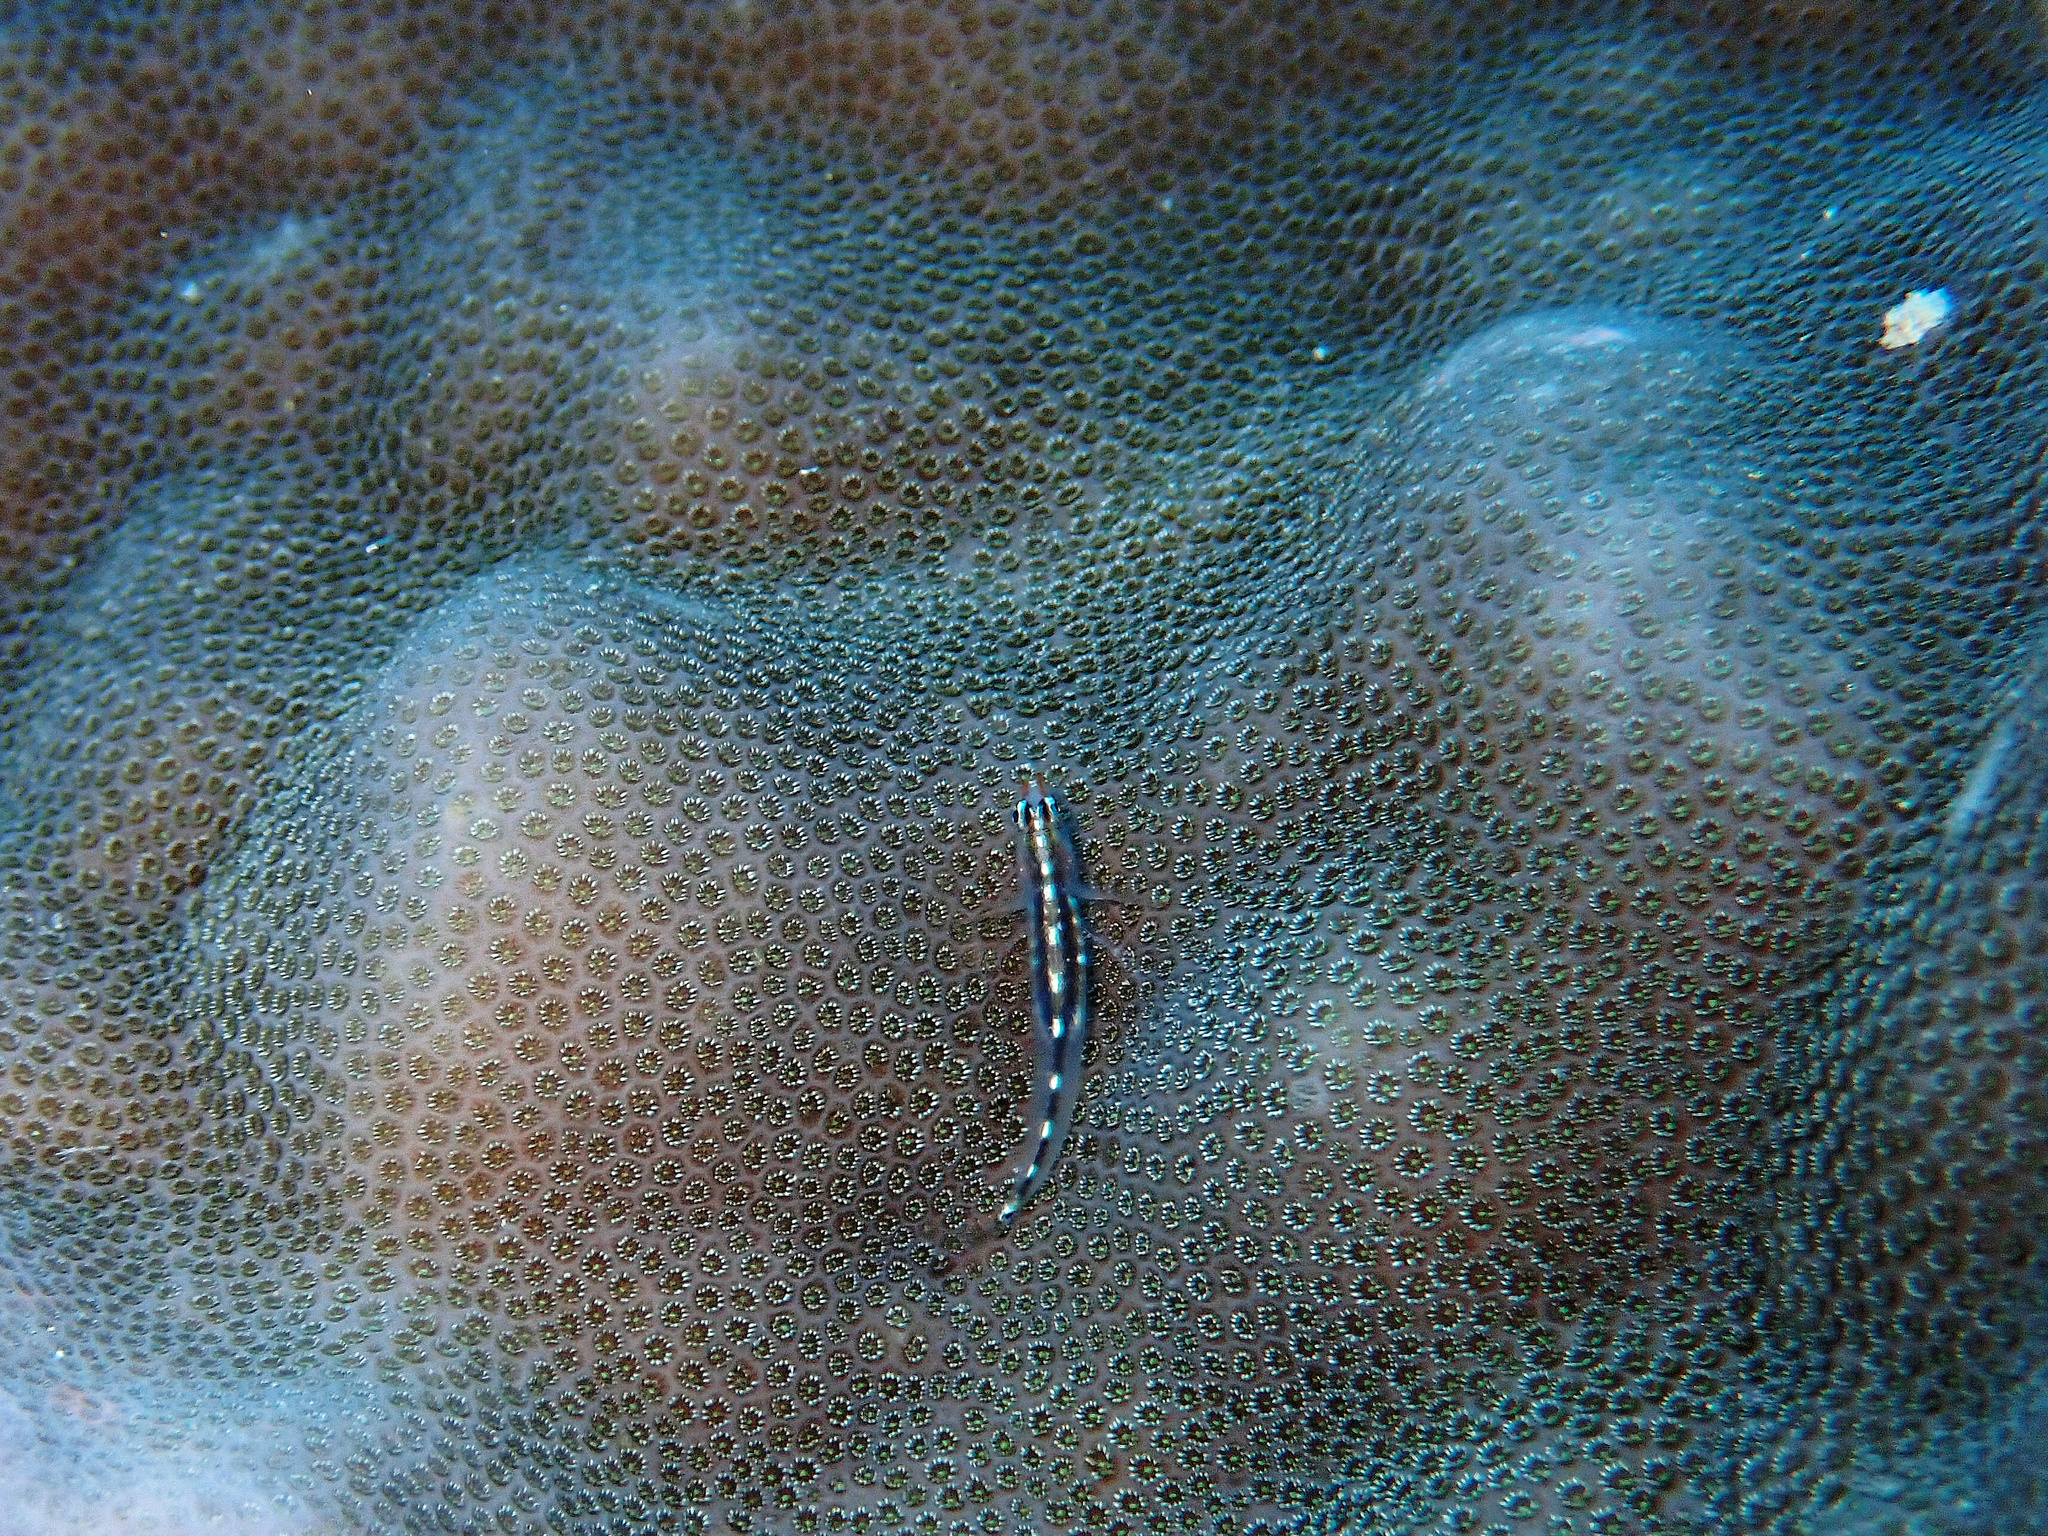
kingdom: Animalia
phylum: Chordata
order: Perciformes
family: Gobiidae
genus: Eviota
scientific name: Eviota sebreei
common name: Sebree's pygmy goby
